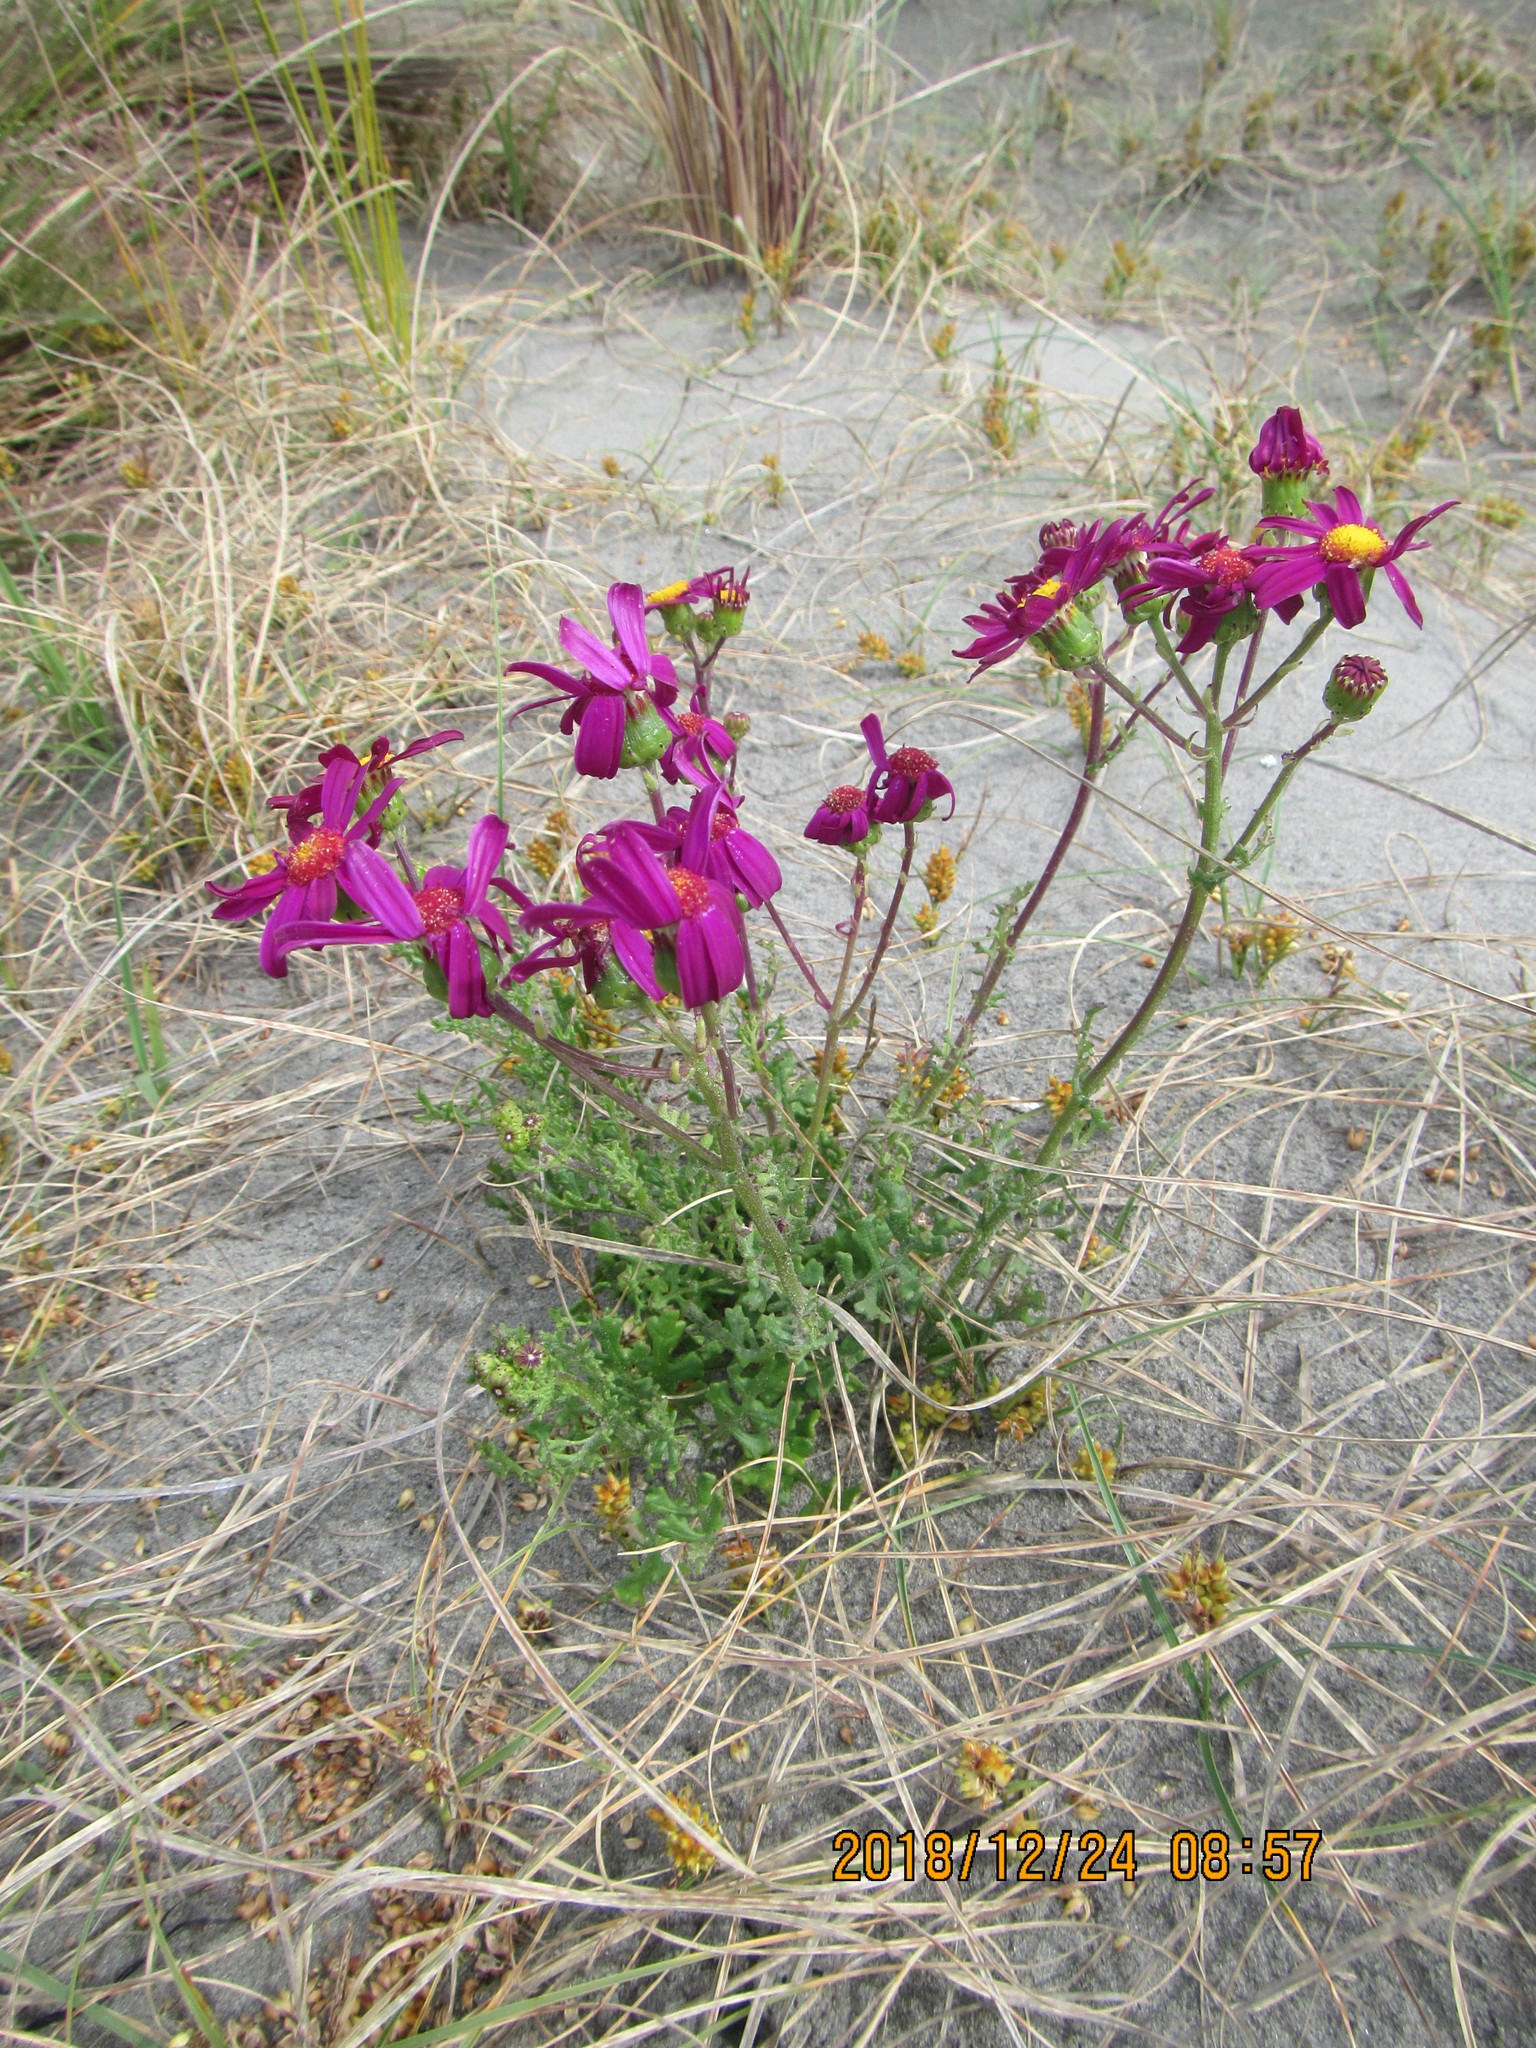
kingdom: Plantae
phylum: Tracheophyta
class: Magnoliopsida
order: Asterales
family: Asteraceae
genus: Senecio
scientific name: Senecio elegans
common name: Purple groundsel
